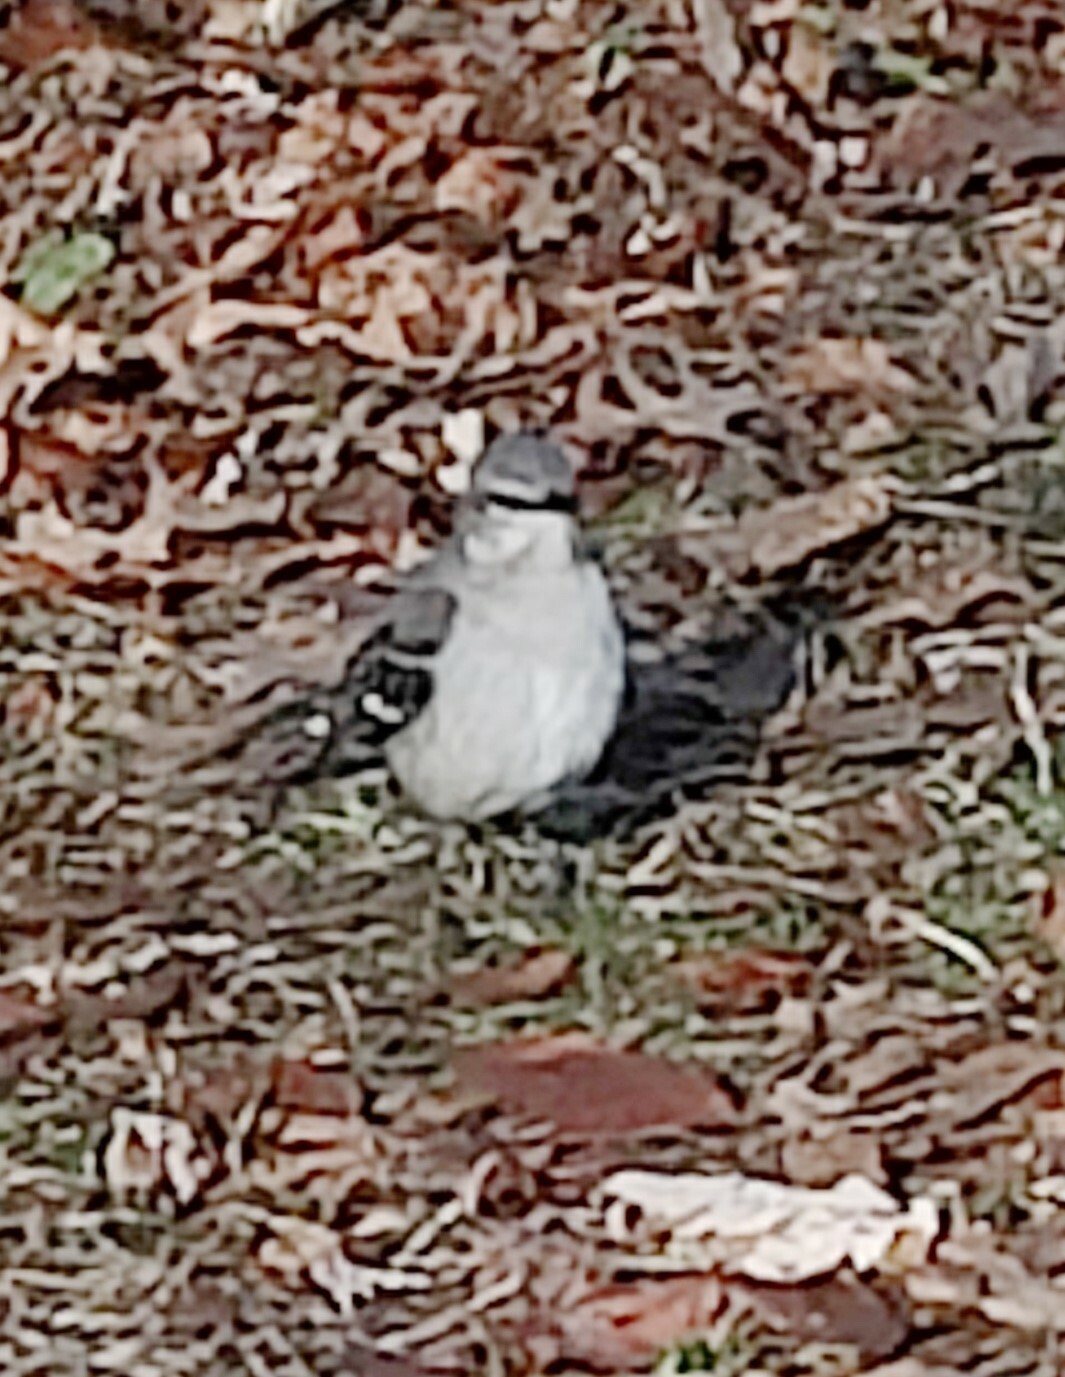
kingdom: Animalia
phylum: Chordata
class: Aves
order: Passeriformes
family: Mimidae
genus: Mimus
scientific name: Mimus polyglottos
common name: Northern mockingbird
